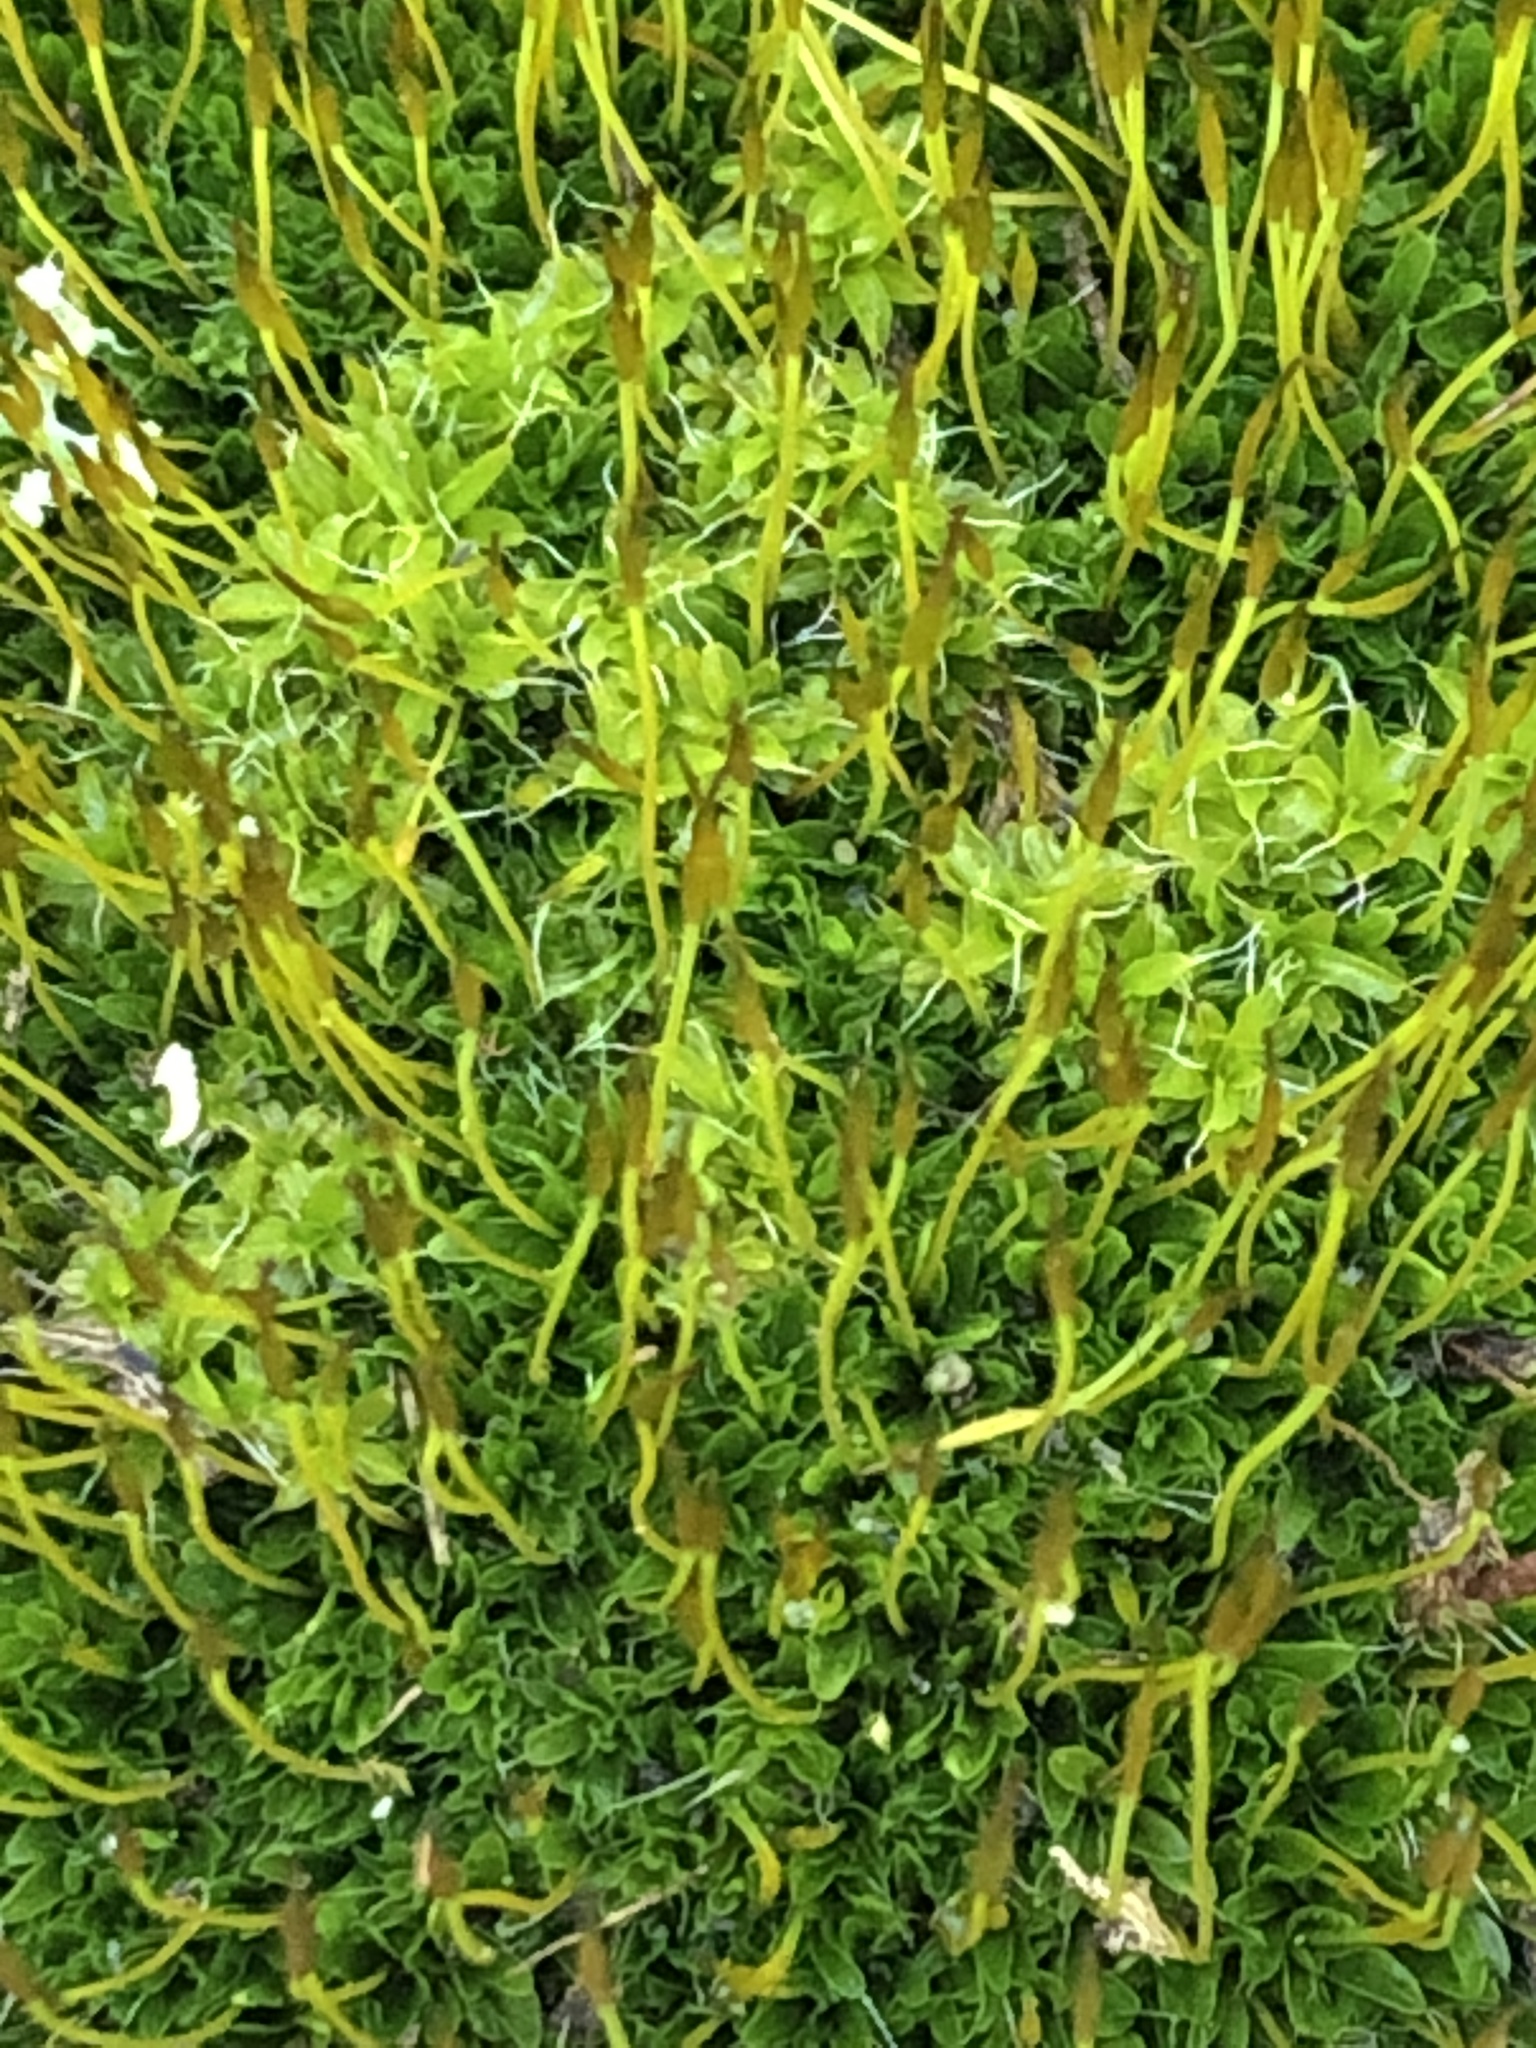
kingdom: Plantae
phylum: Bryophyta
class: Bryopsida
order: Pottiales
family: Pottiaceae
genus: Tortula
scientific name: Tortula muralis
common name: Wall screw-moss
